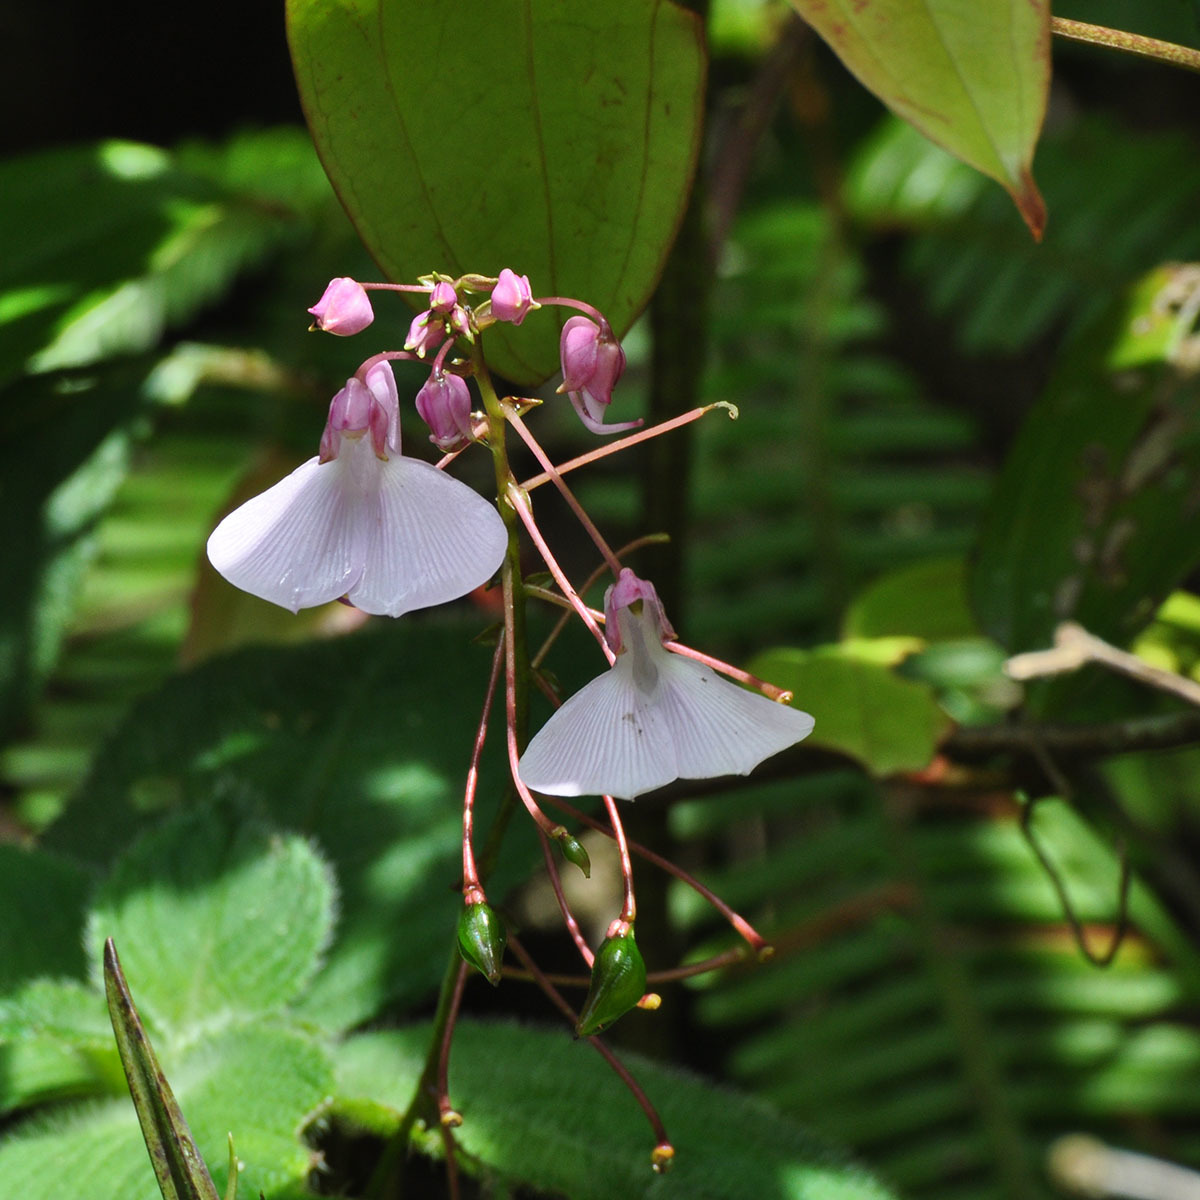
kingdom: Plantae
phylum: Tracheophyta
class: Magnoliopsida
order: Ericales
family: Balsaminaceae
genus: Impatiens
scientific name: Impatiens maculata
